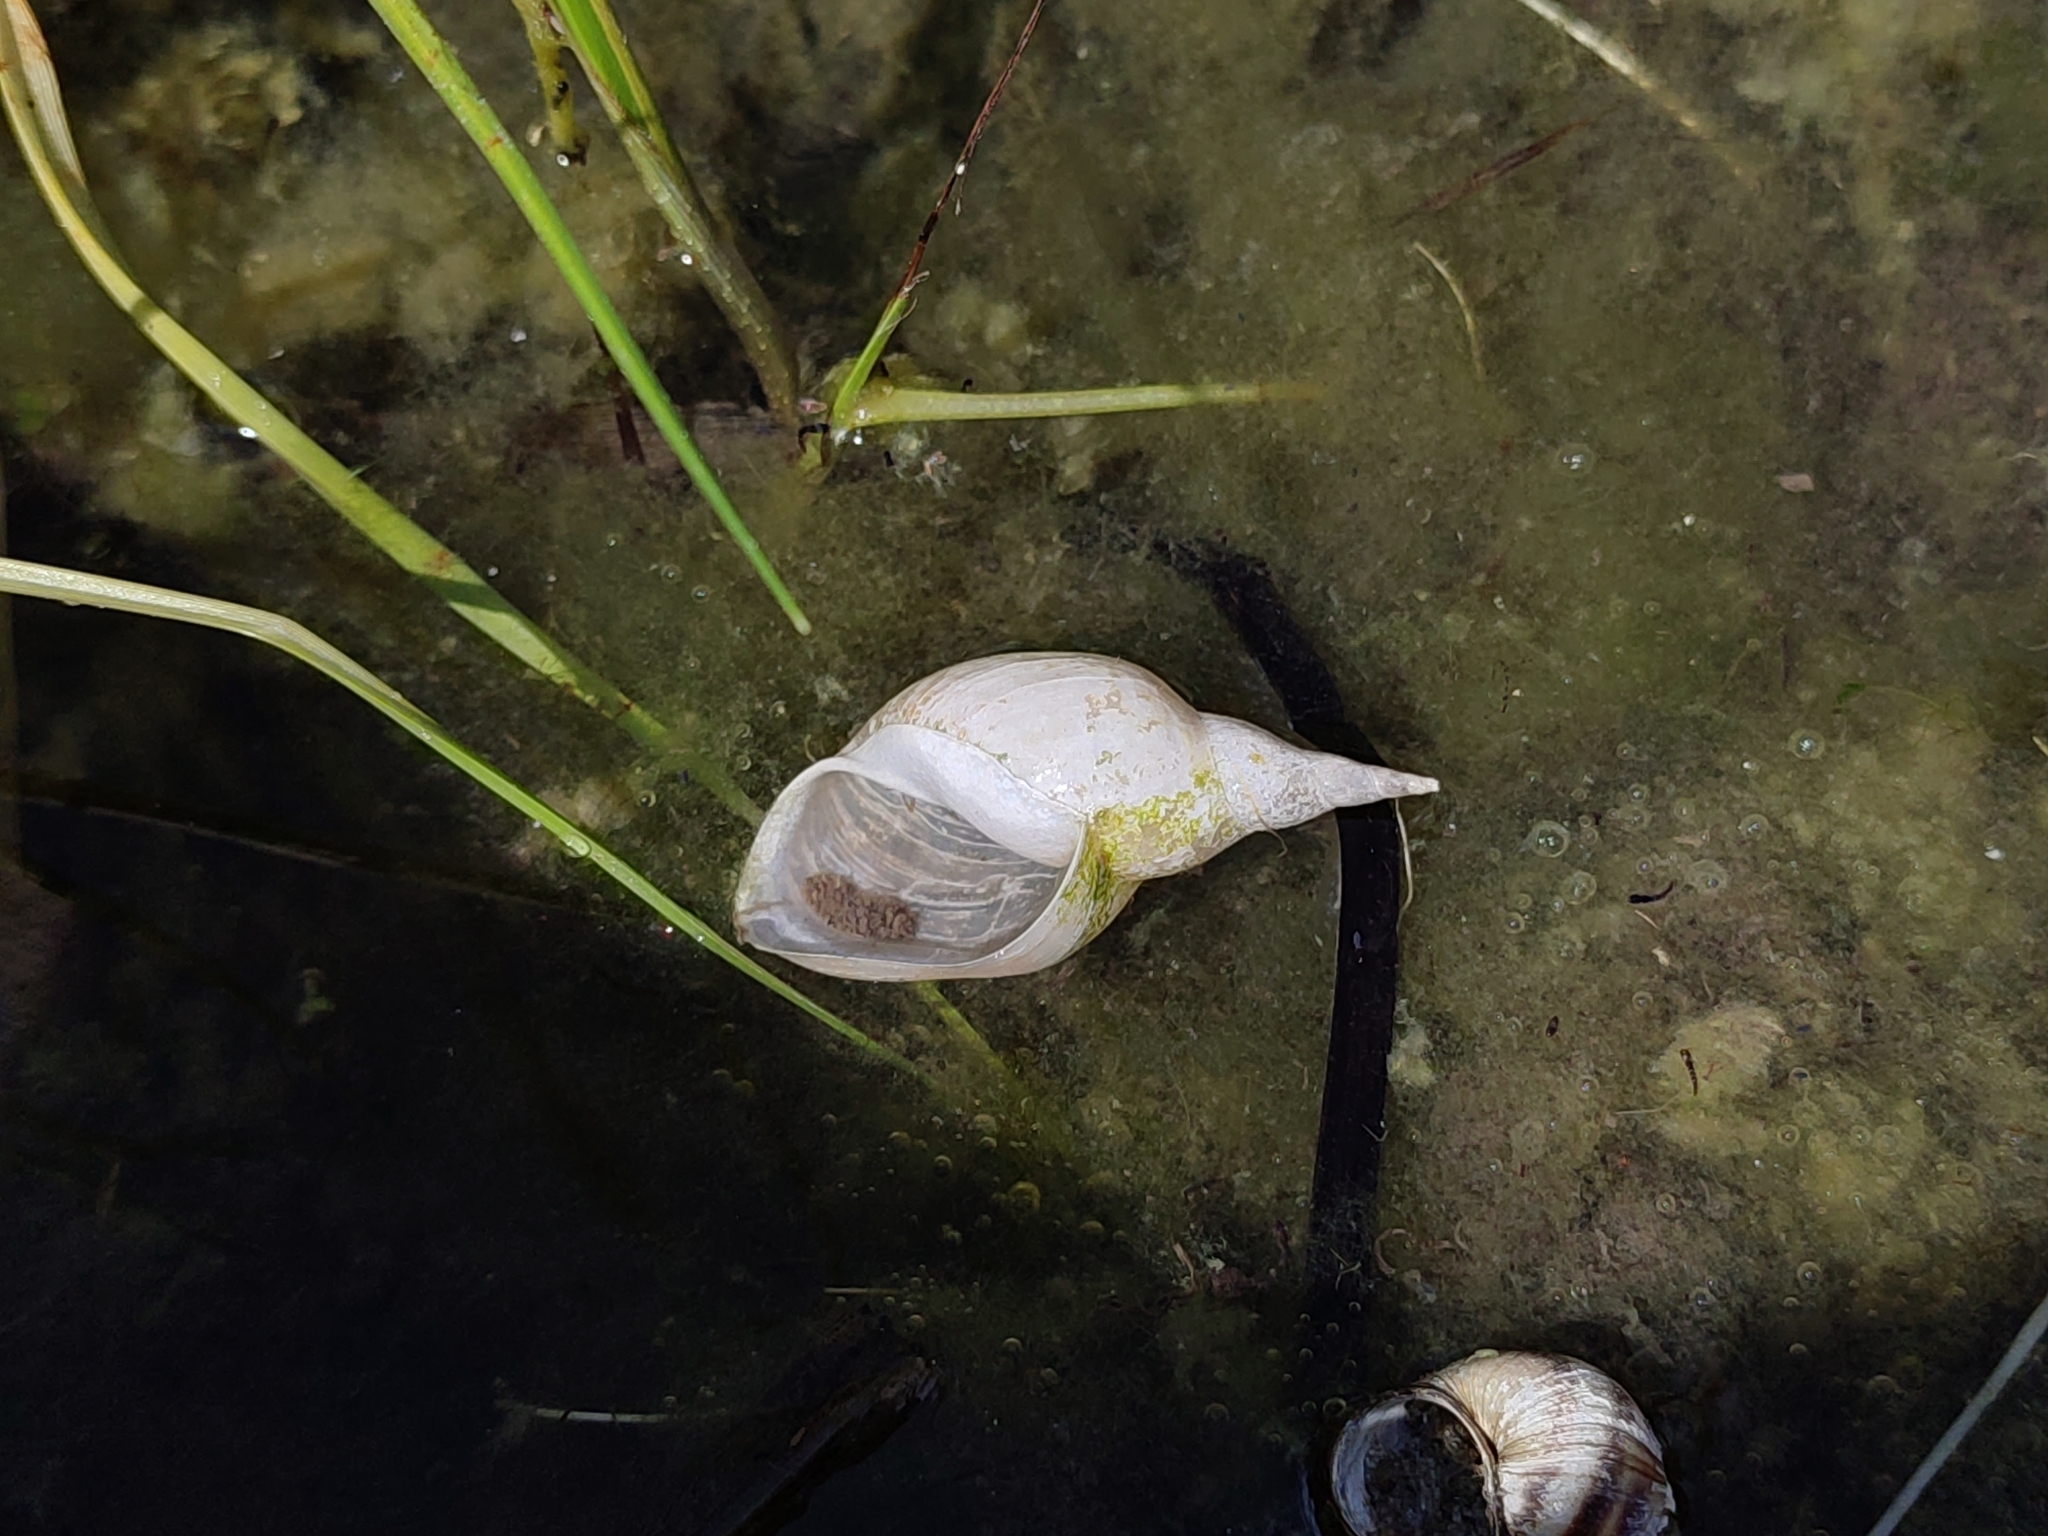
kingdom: Animalia
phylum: Mollusca
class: Gastropoda
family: Lymnaeidae
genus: Lymnaea
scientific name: Lymnaea stagnalis
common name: Great pond snail
